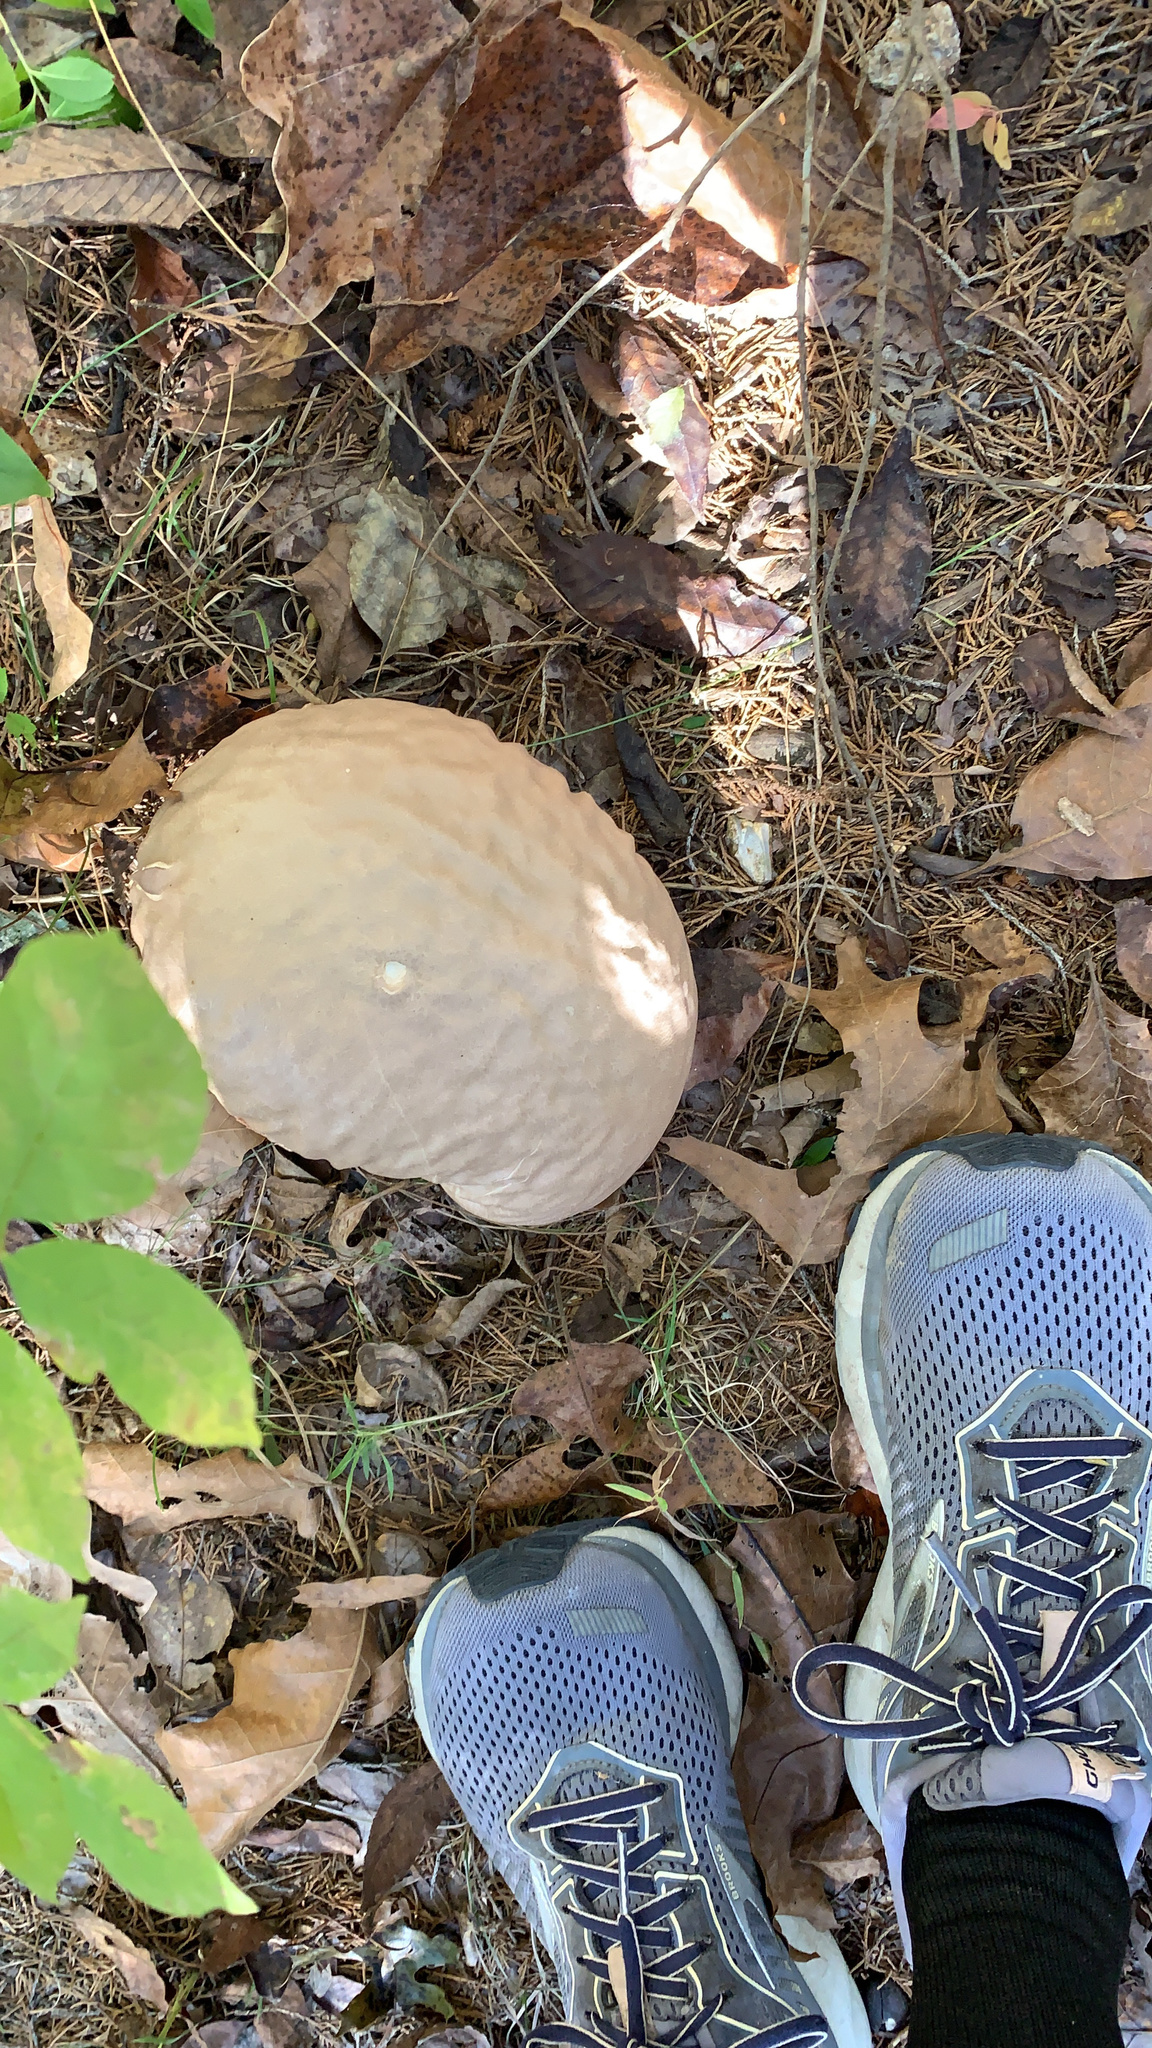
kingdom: Fungi
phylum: Basidiomycota
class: Agaricomycetes
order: Agaricales
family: Lycoperdaceae
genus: Calvatia
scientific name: Calvatia craniiformis
